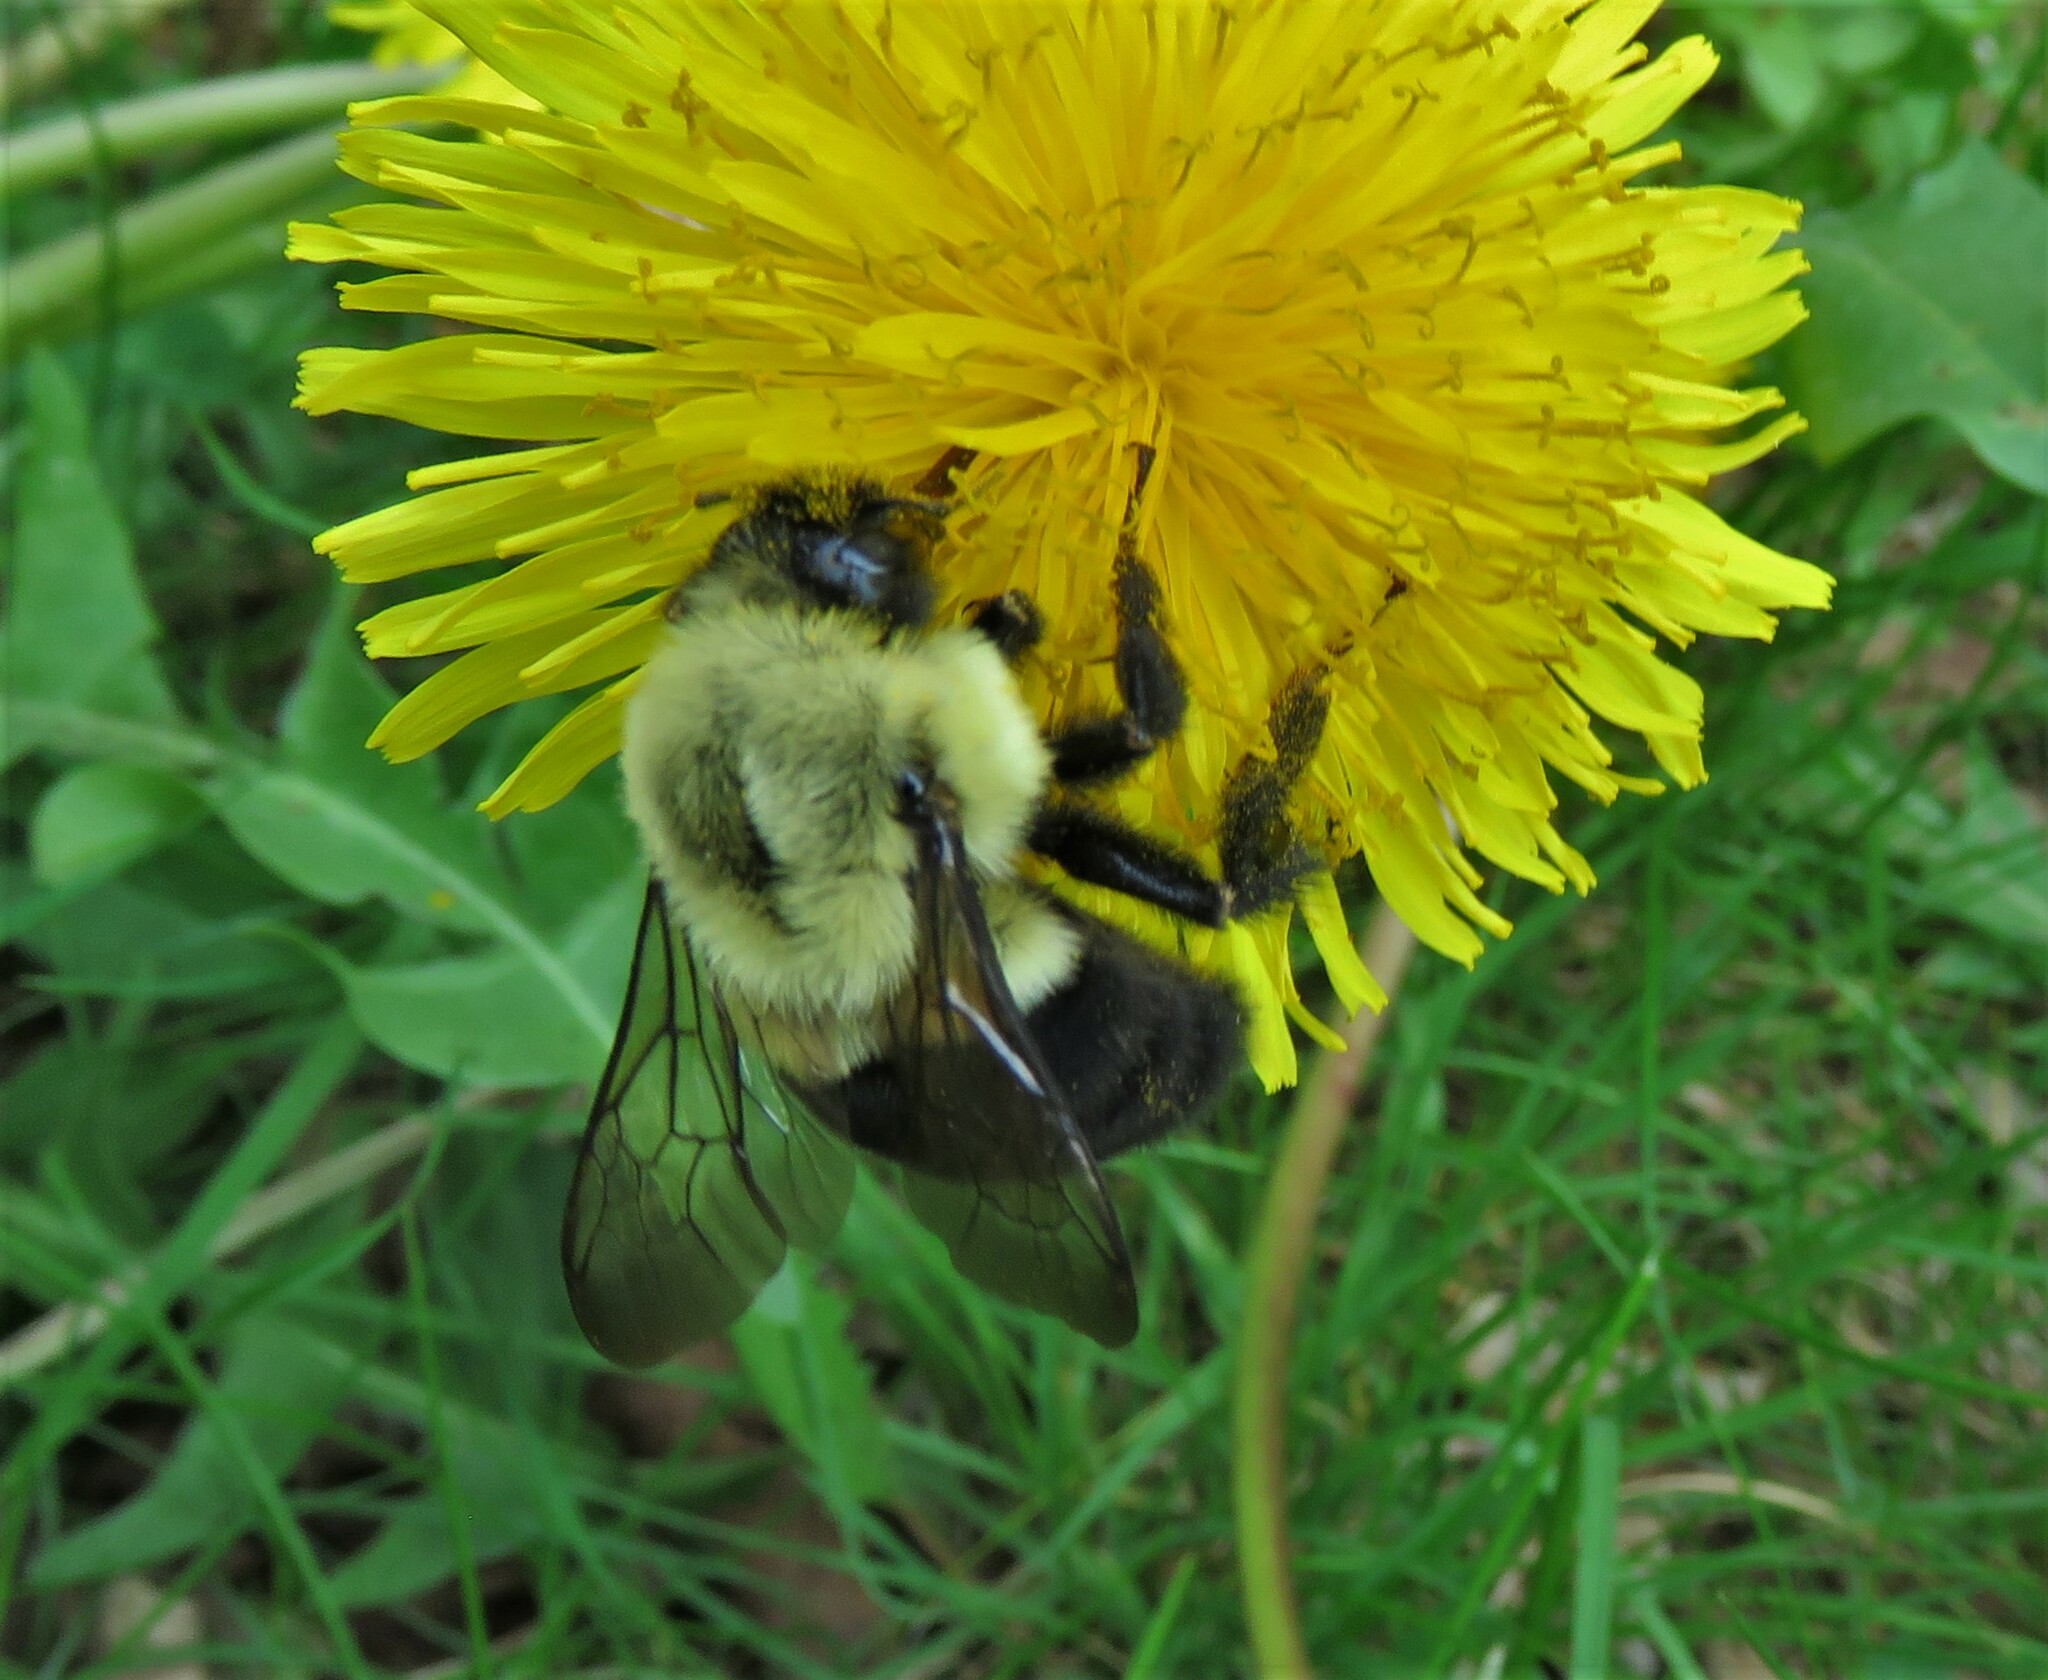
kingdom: Animalia
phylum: Arthropoda
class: Insecta
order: Hymenoptera
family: Apidae
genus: Bombus
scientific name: Bombus impatiens
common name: Common eastern bumble bee
